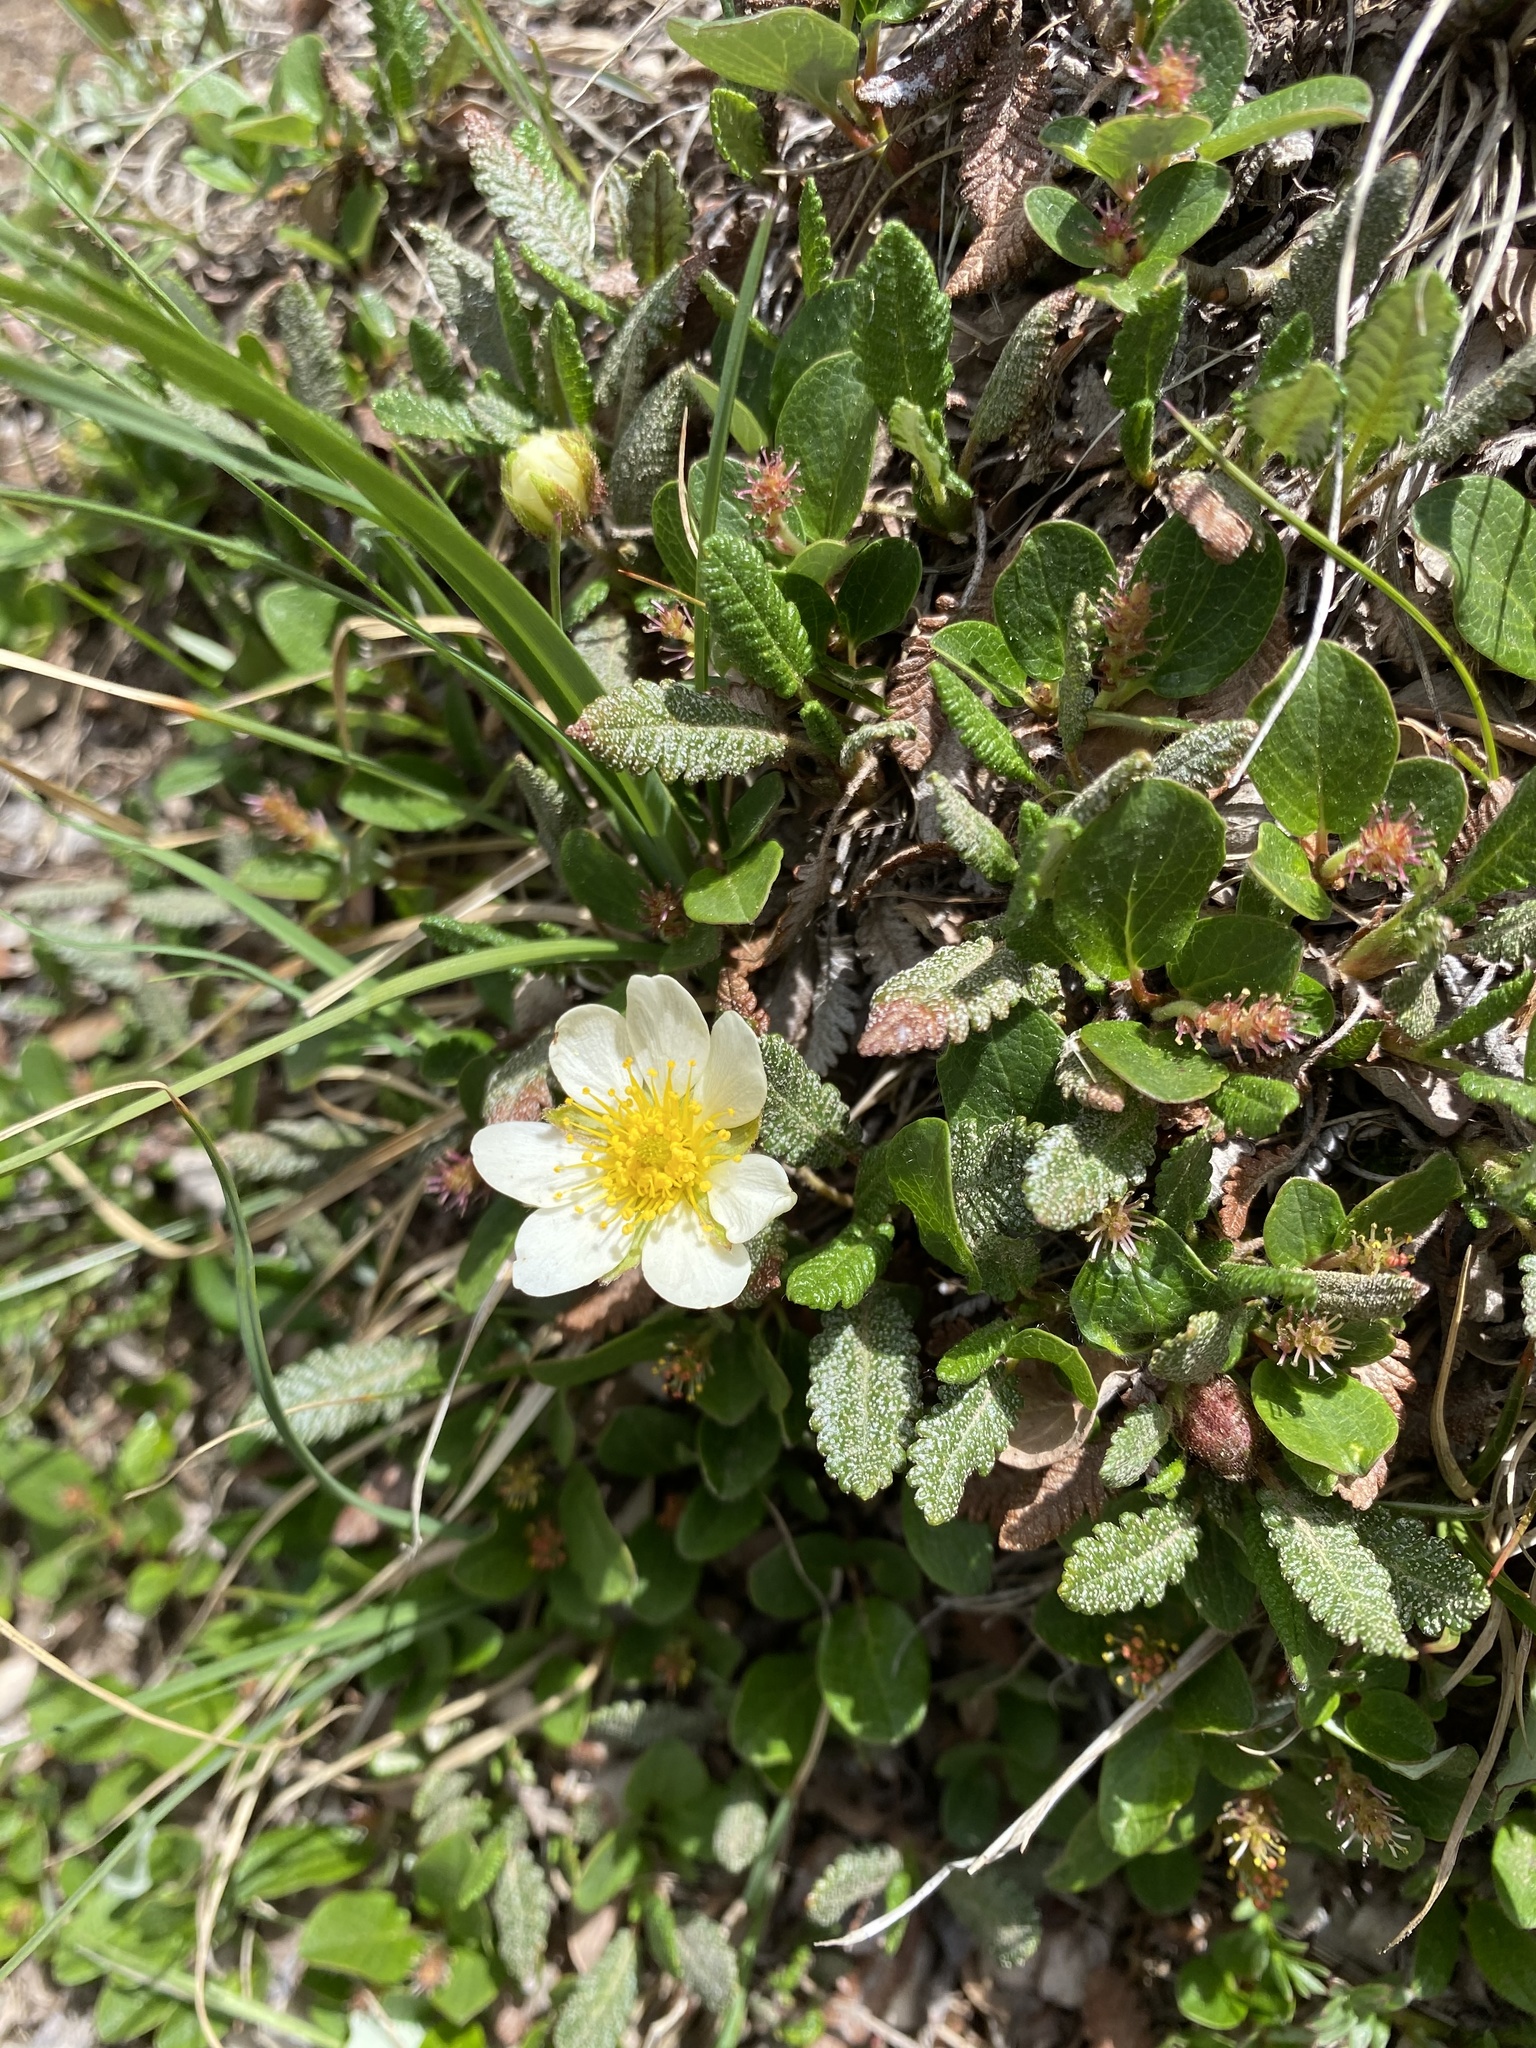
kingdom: Plantae
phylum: Tracheophyta
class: Magnoliopsida
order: Rosales
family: Rosaceae
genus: Dryas
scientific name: Dryas octopetala
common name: Eight-petal mountain-avens
